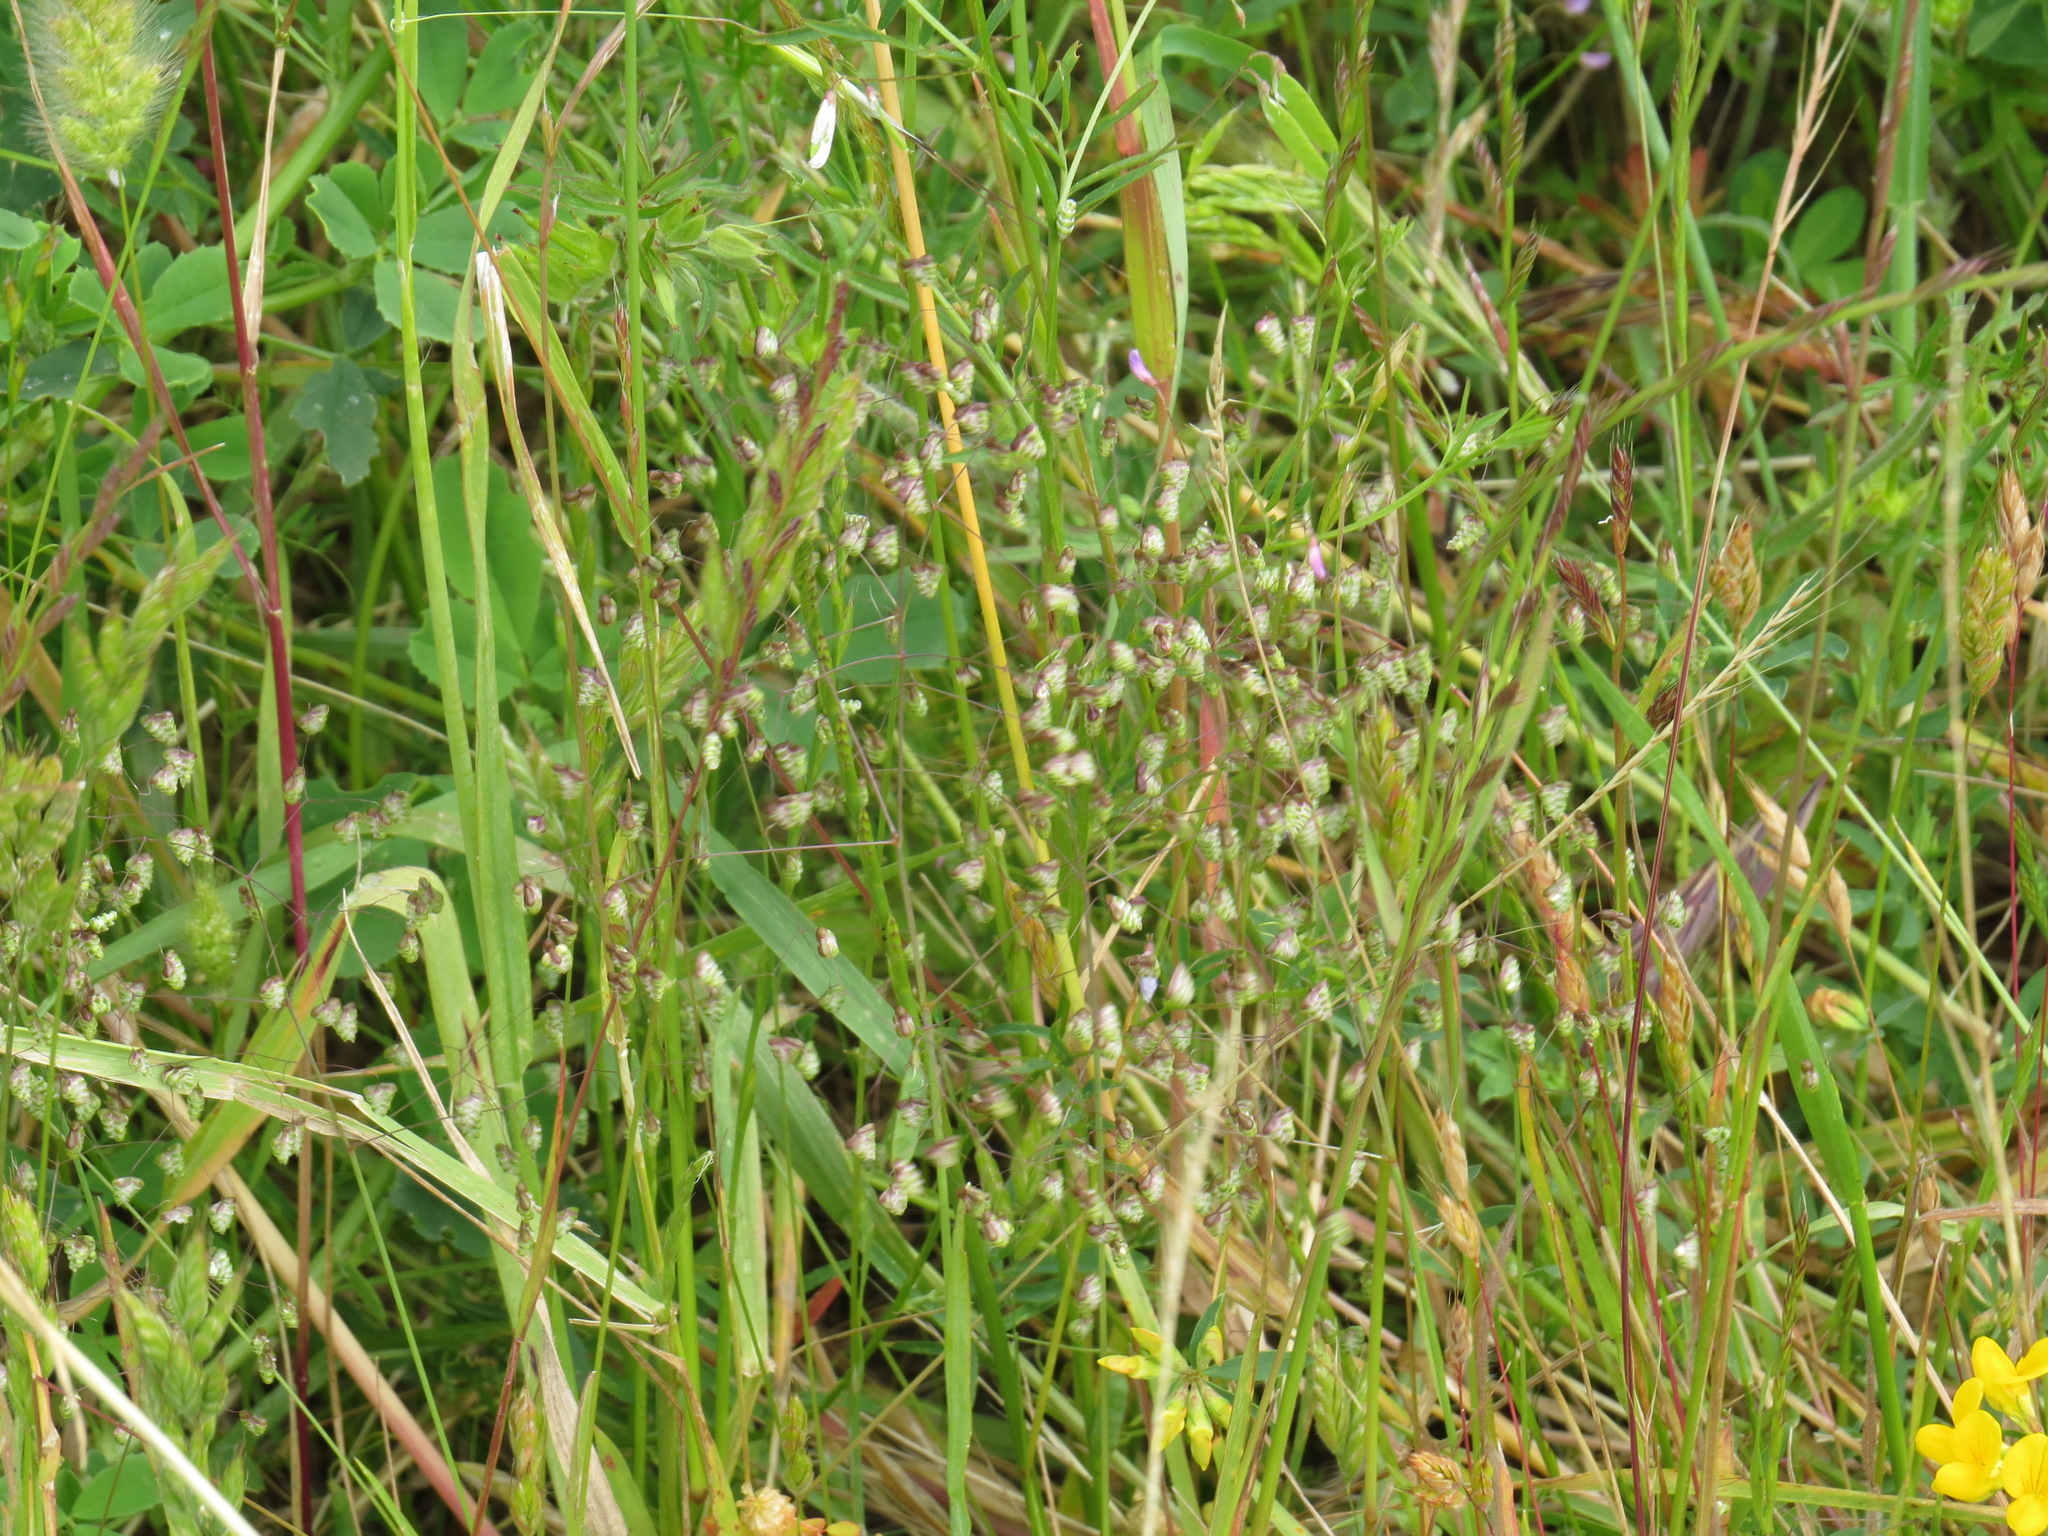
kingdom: Plantae
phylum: Tracheophyta
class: Liliopsida
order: Poales
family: Poaceae
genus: Briza
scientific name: Briza minor
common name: Lesser quaking-grass
